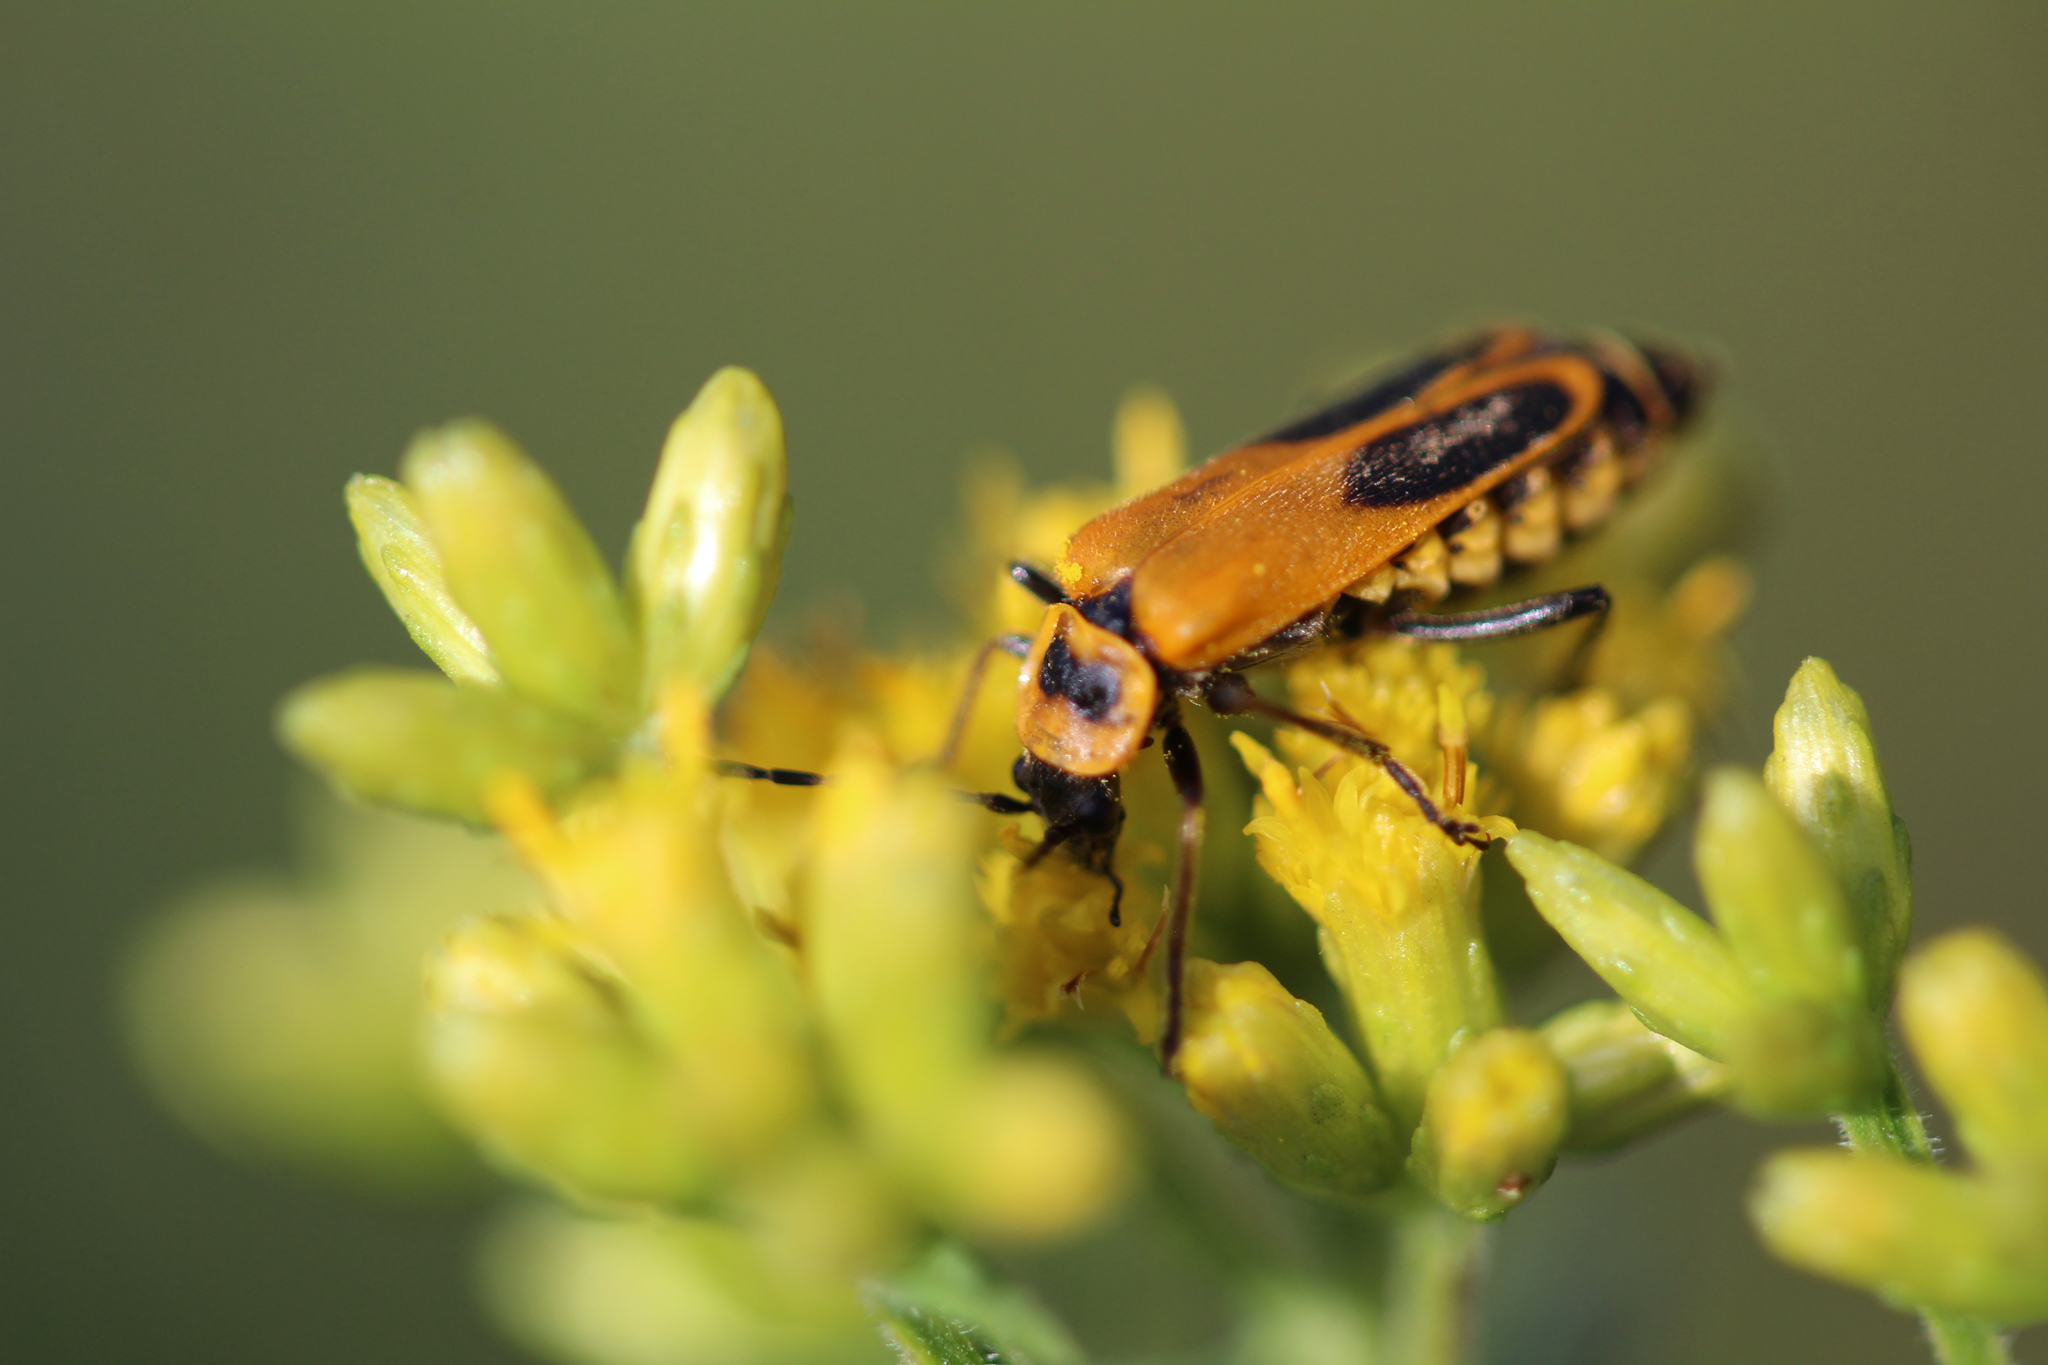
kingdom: Animalia
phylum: Arthropoda
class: Insecta
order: Coleoptera
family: Cantharidae
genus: Chauliognathus
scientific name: Chauliognathus pensylvanicus
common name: Goldenrod soldier beetle
